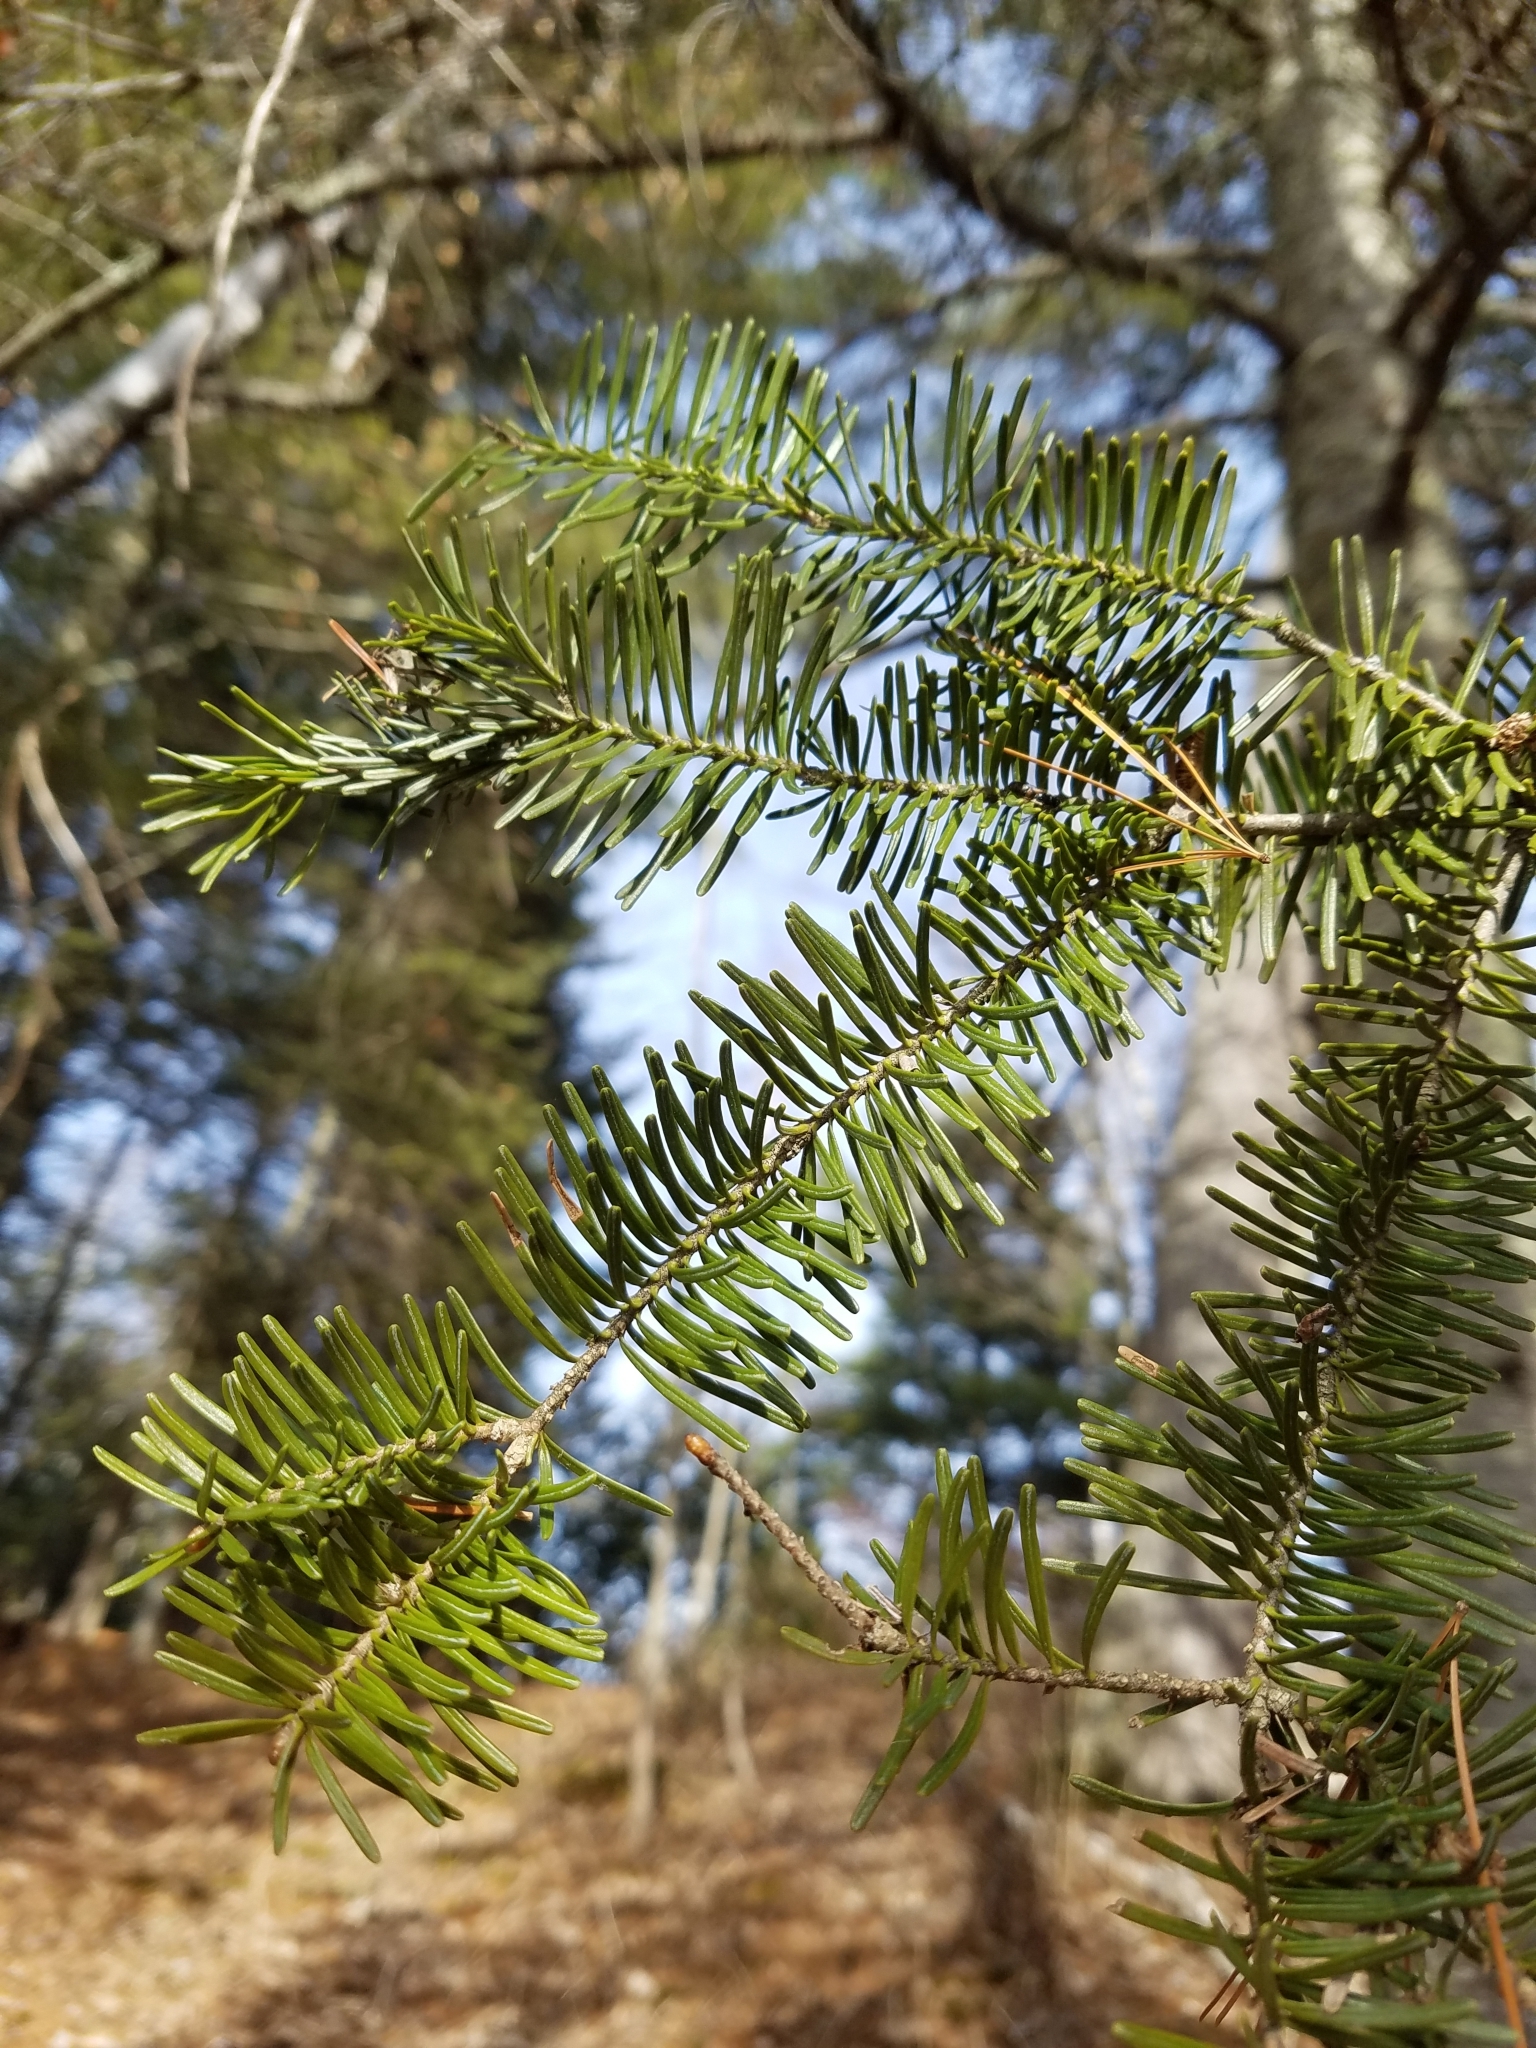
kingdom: Plantae
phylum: Tracheophyta
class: Pinopsida
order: Pinales
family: Pinaceae
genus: Abies
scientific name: Abies balsamea
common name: Balsam fir
